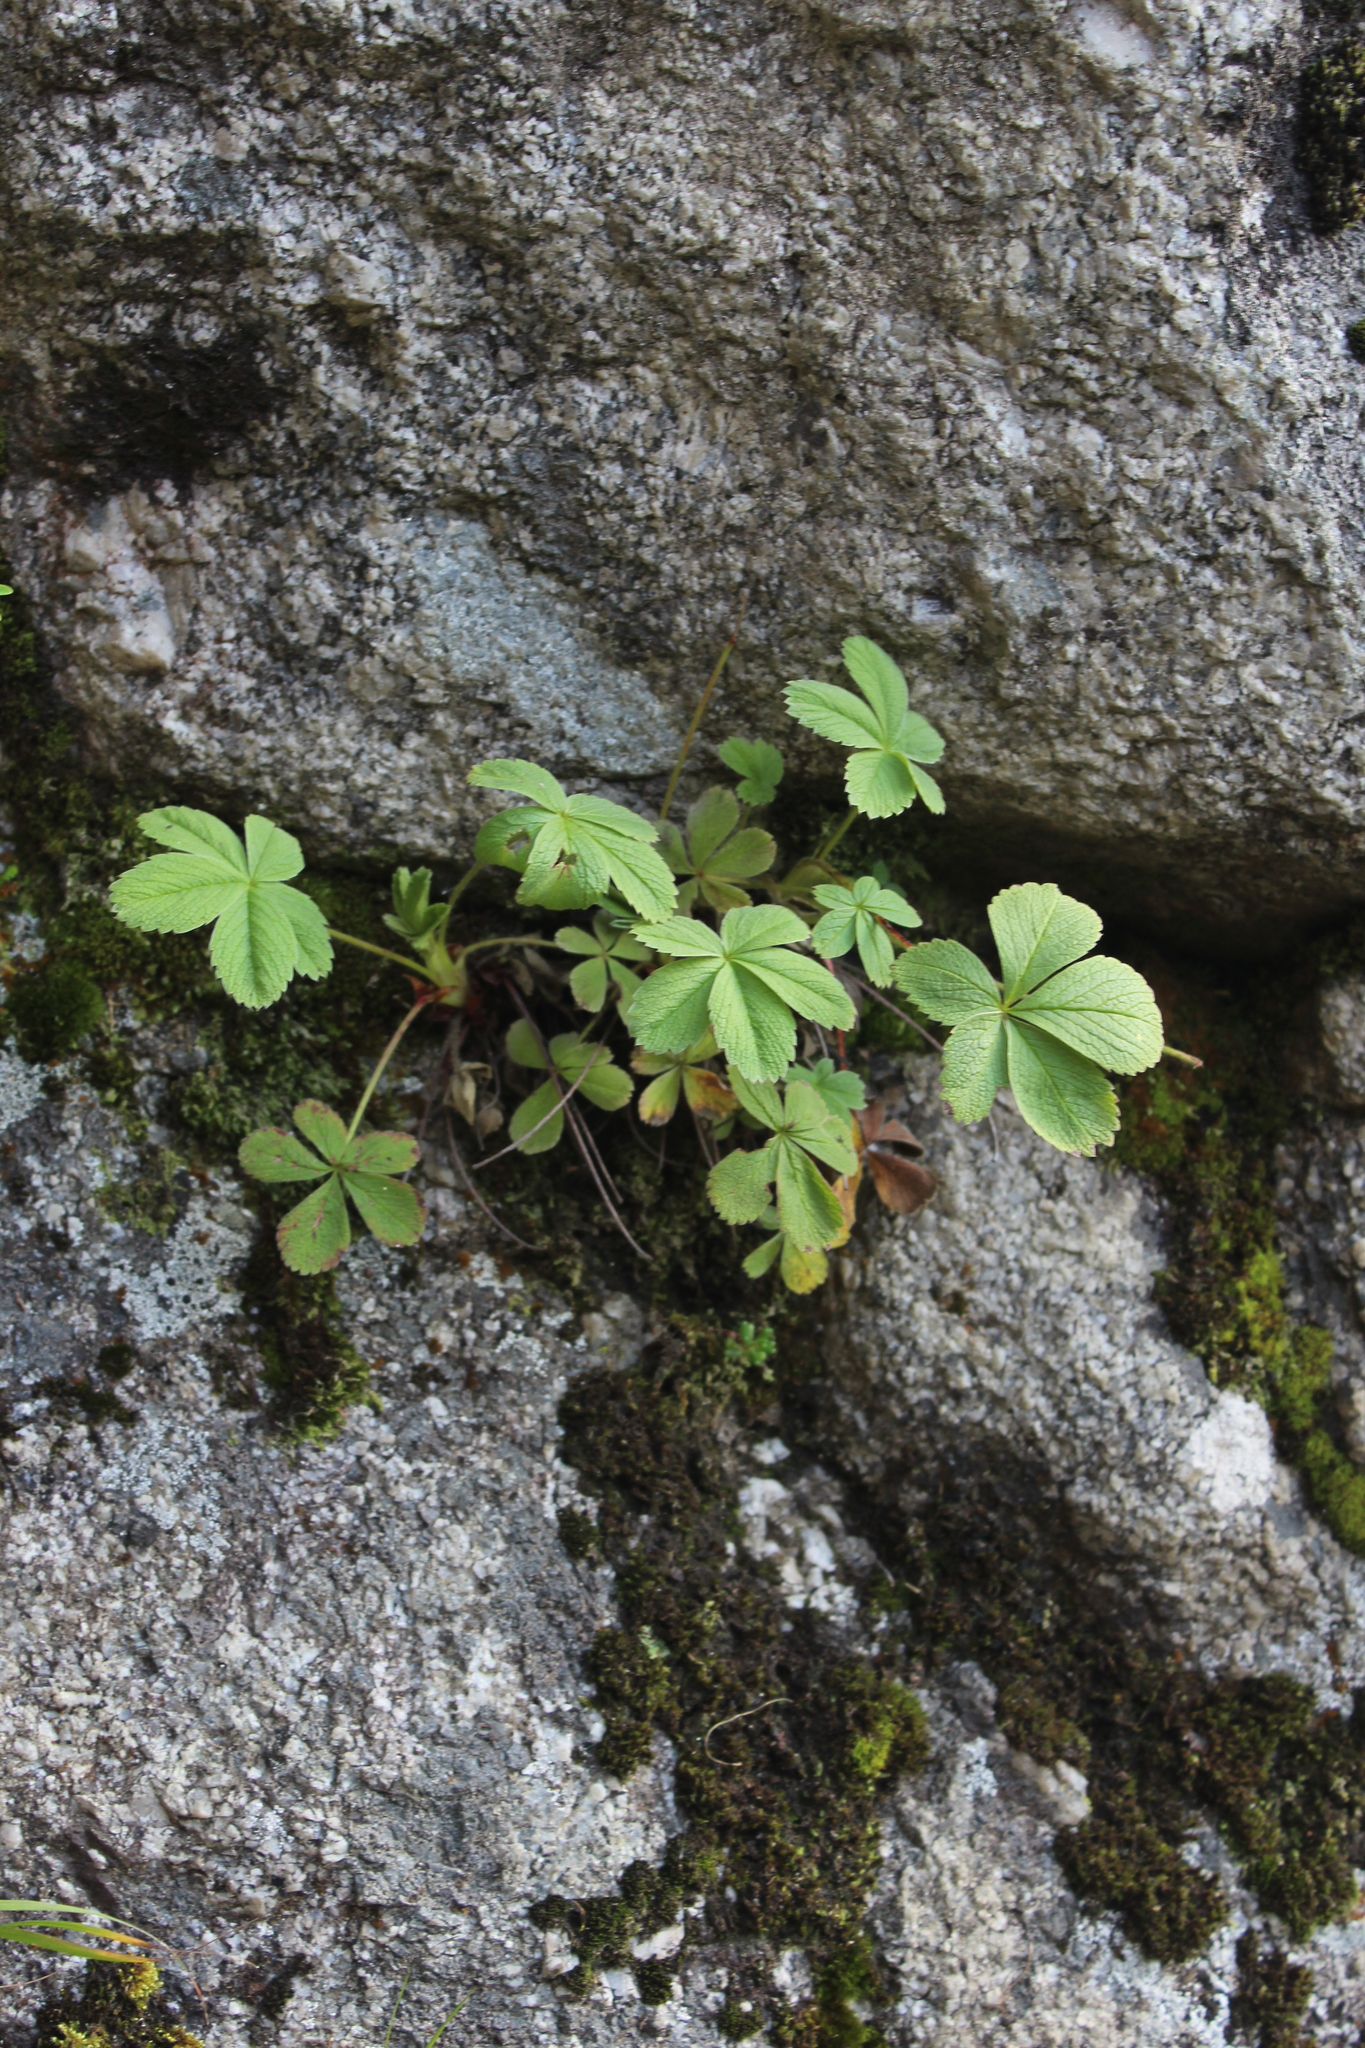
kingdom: Plantae
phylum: Tracheophyta
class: Magnoliopsida
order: Rosales
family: Rosaceae
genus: Potentilla
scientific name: Potentilla brachypetala
